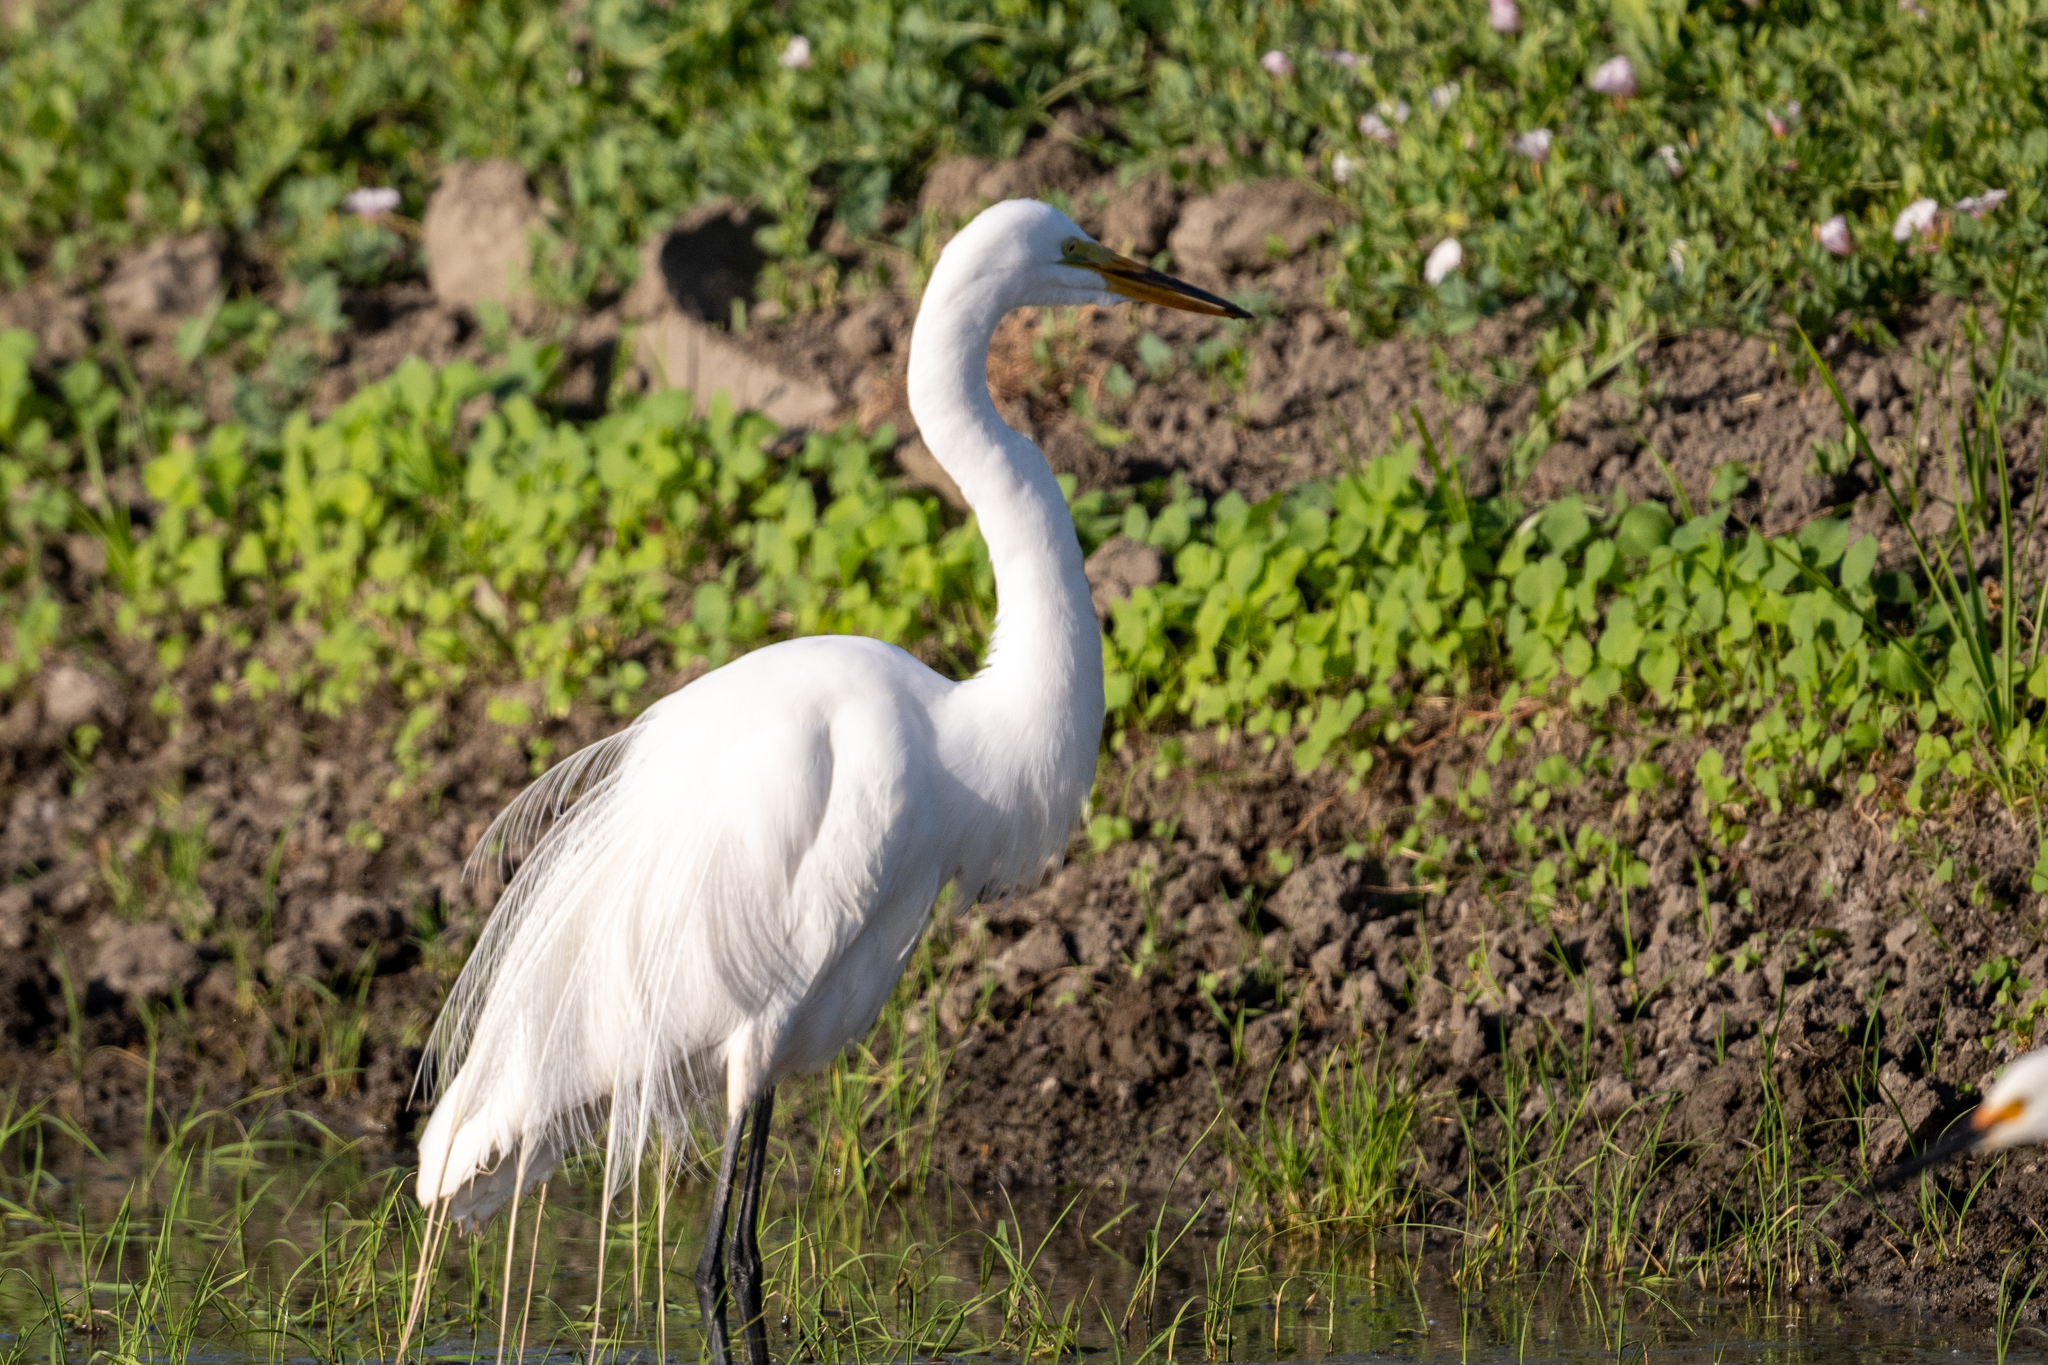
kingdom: Animalia
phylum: Chordata
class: Aves
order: Pelecaniformes
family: Ardeidae
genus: Ardea
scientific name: Ardea alba
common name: Great egret
